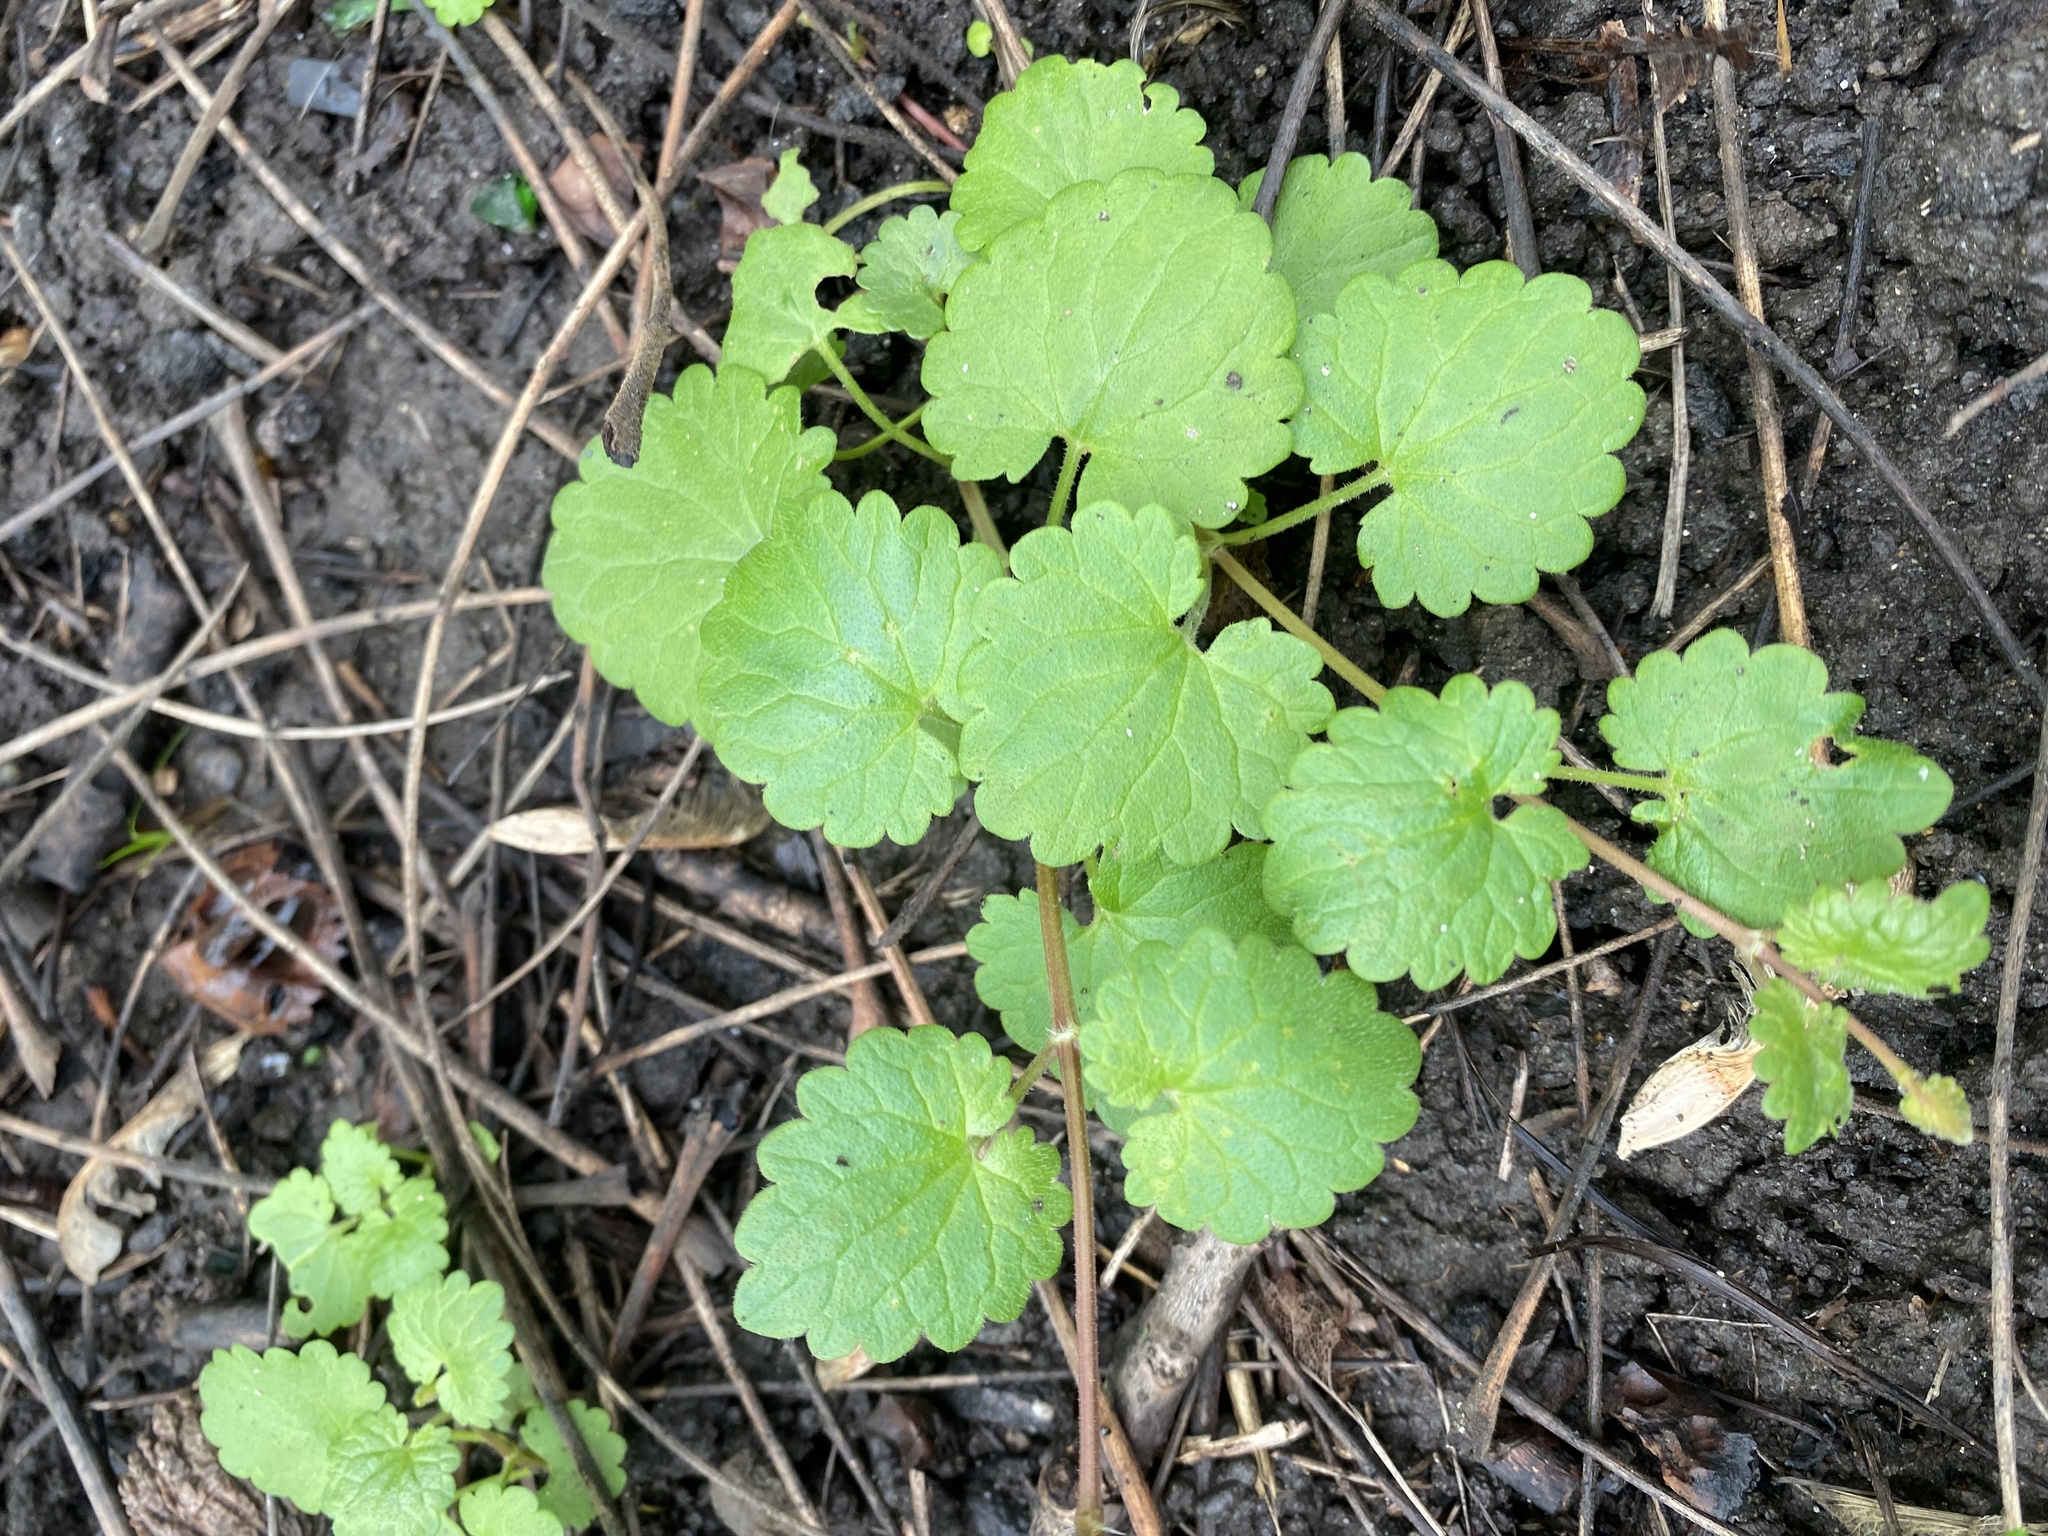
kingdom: Plantae
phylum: Tracheophyta
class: Magnoliopsida
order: Lamiales
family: Lamiaceae
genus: Glechoma
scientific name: Glechoma hederacea
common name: Ground ivy
